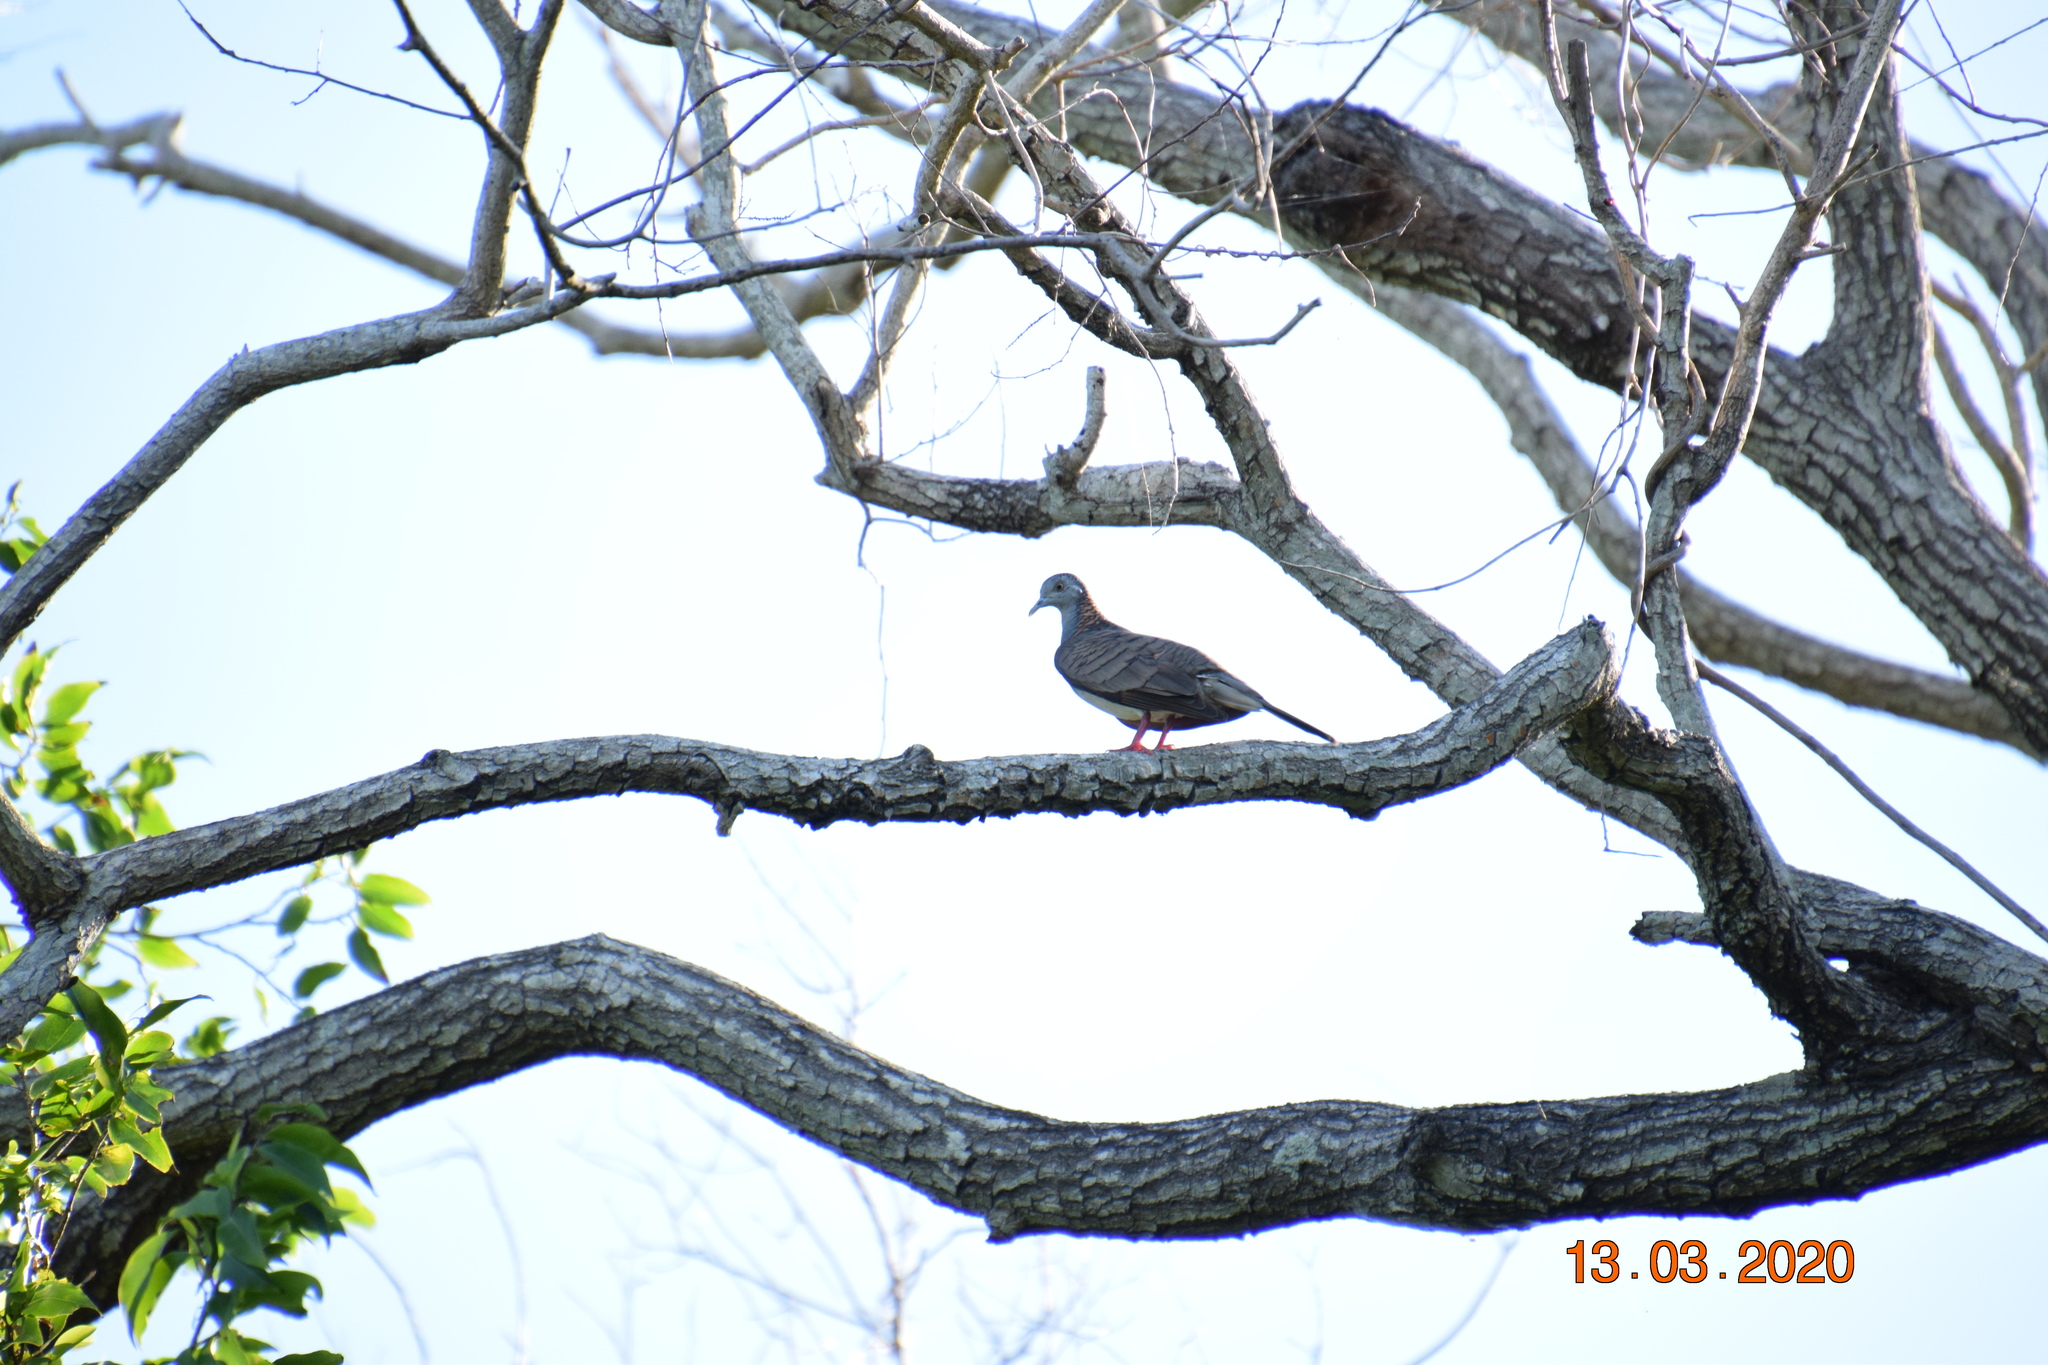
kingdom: Animalia
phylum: Chordata
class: Aves
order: Columbiformes
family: Columbidae
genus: Geopelia
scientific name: Geopelia humeralis
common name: Bar-shouldered dove
